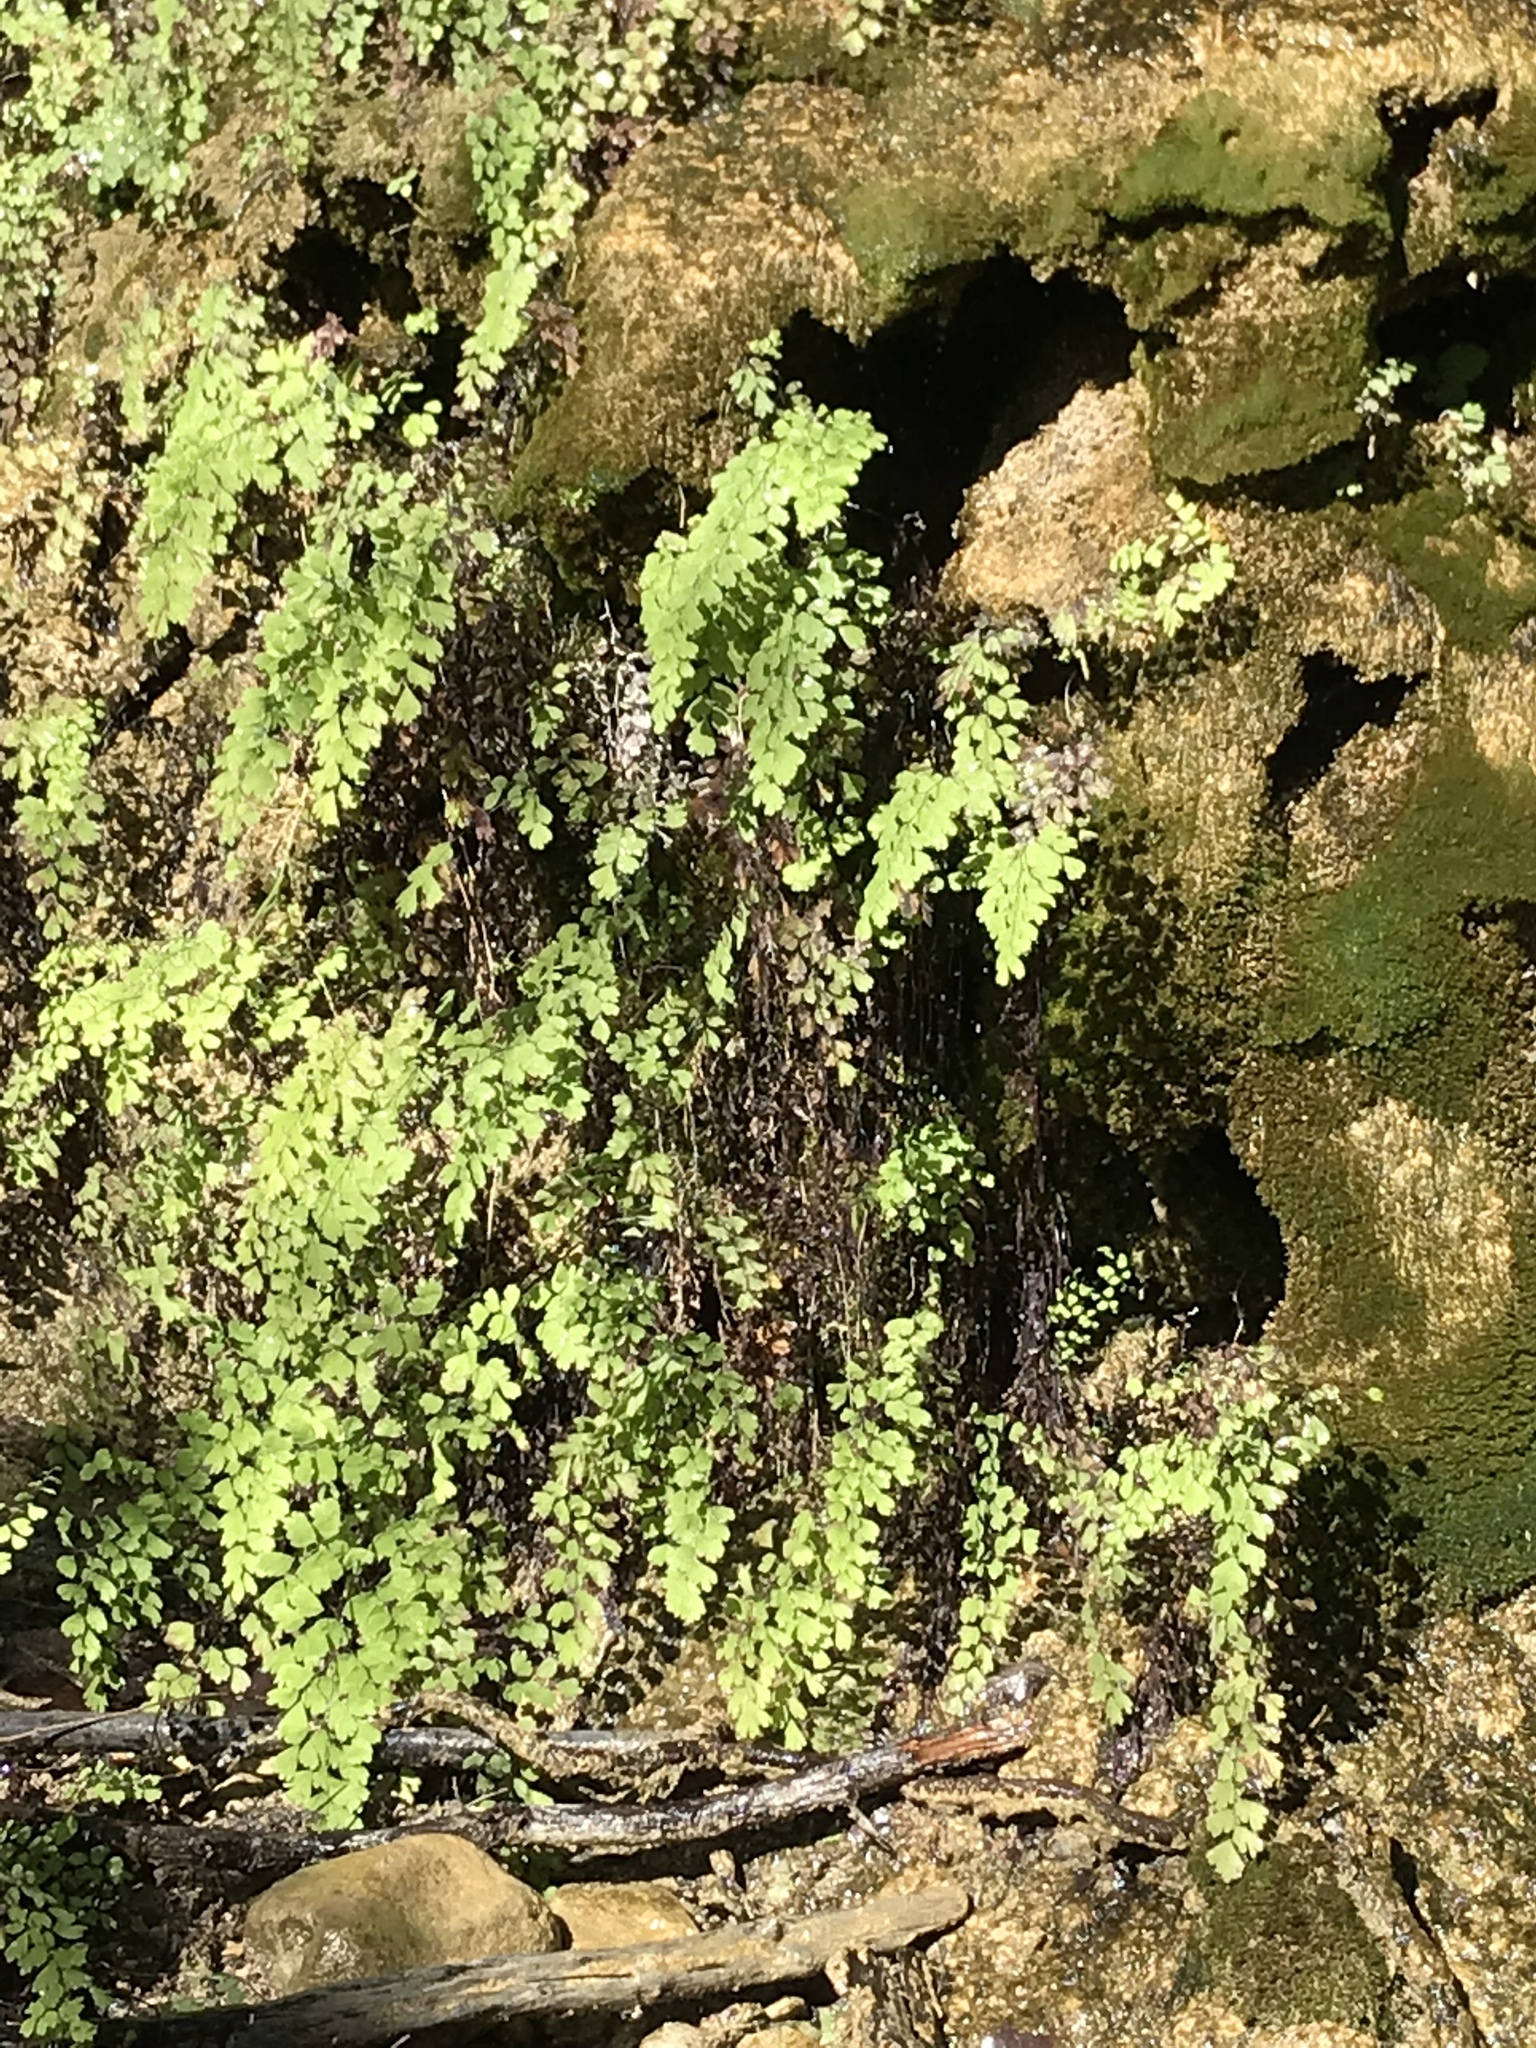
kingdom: Plantae
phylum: Tracheophyta
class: Polypodiopsida
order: Polypodiales
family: Pteridaceae
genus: Adiantum
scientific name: Adiantum capillus-veneris
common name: Maidenhair fern
